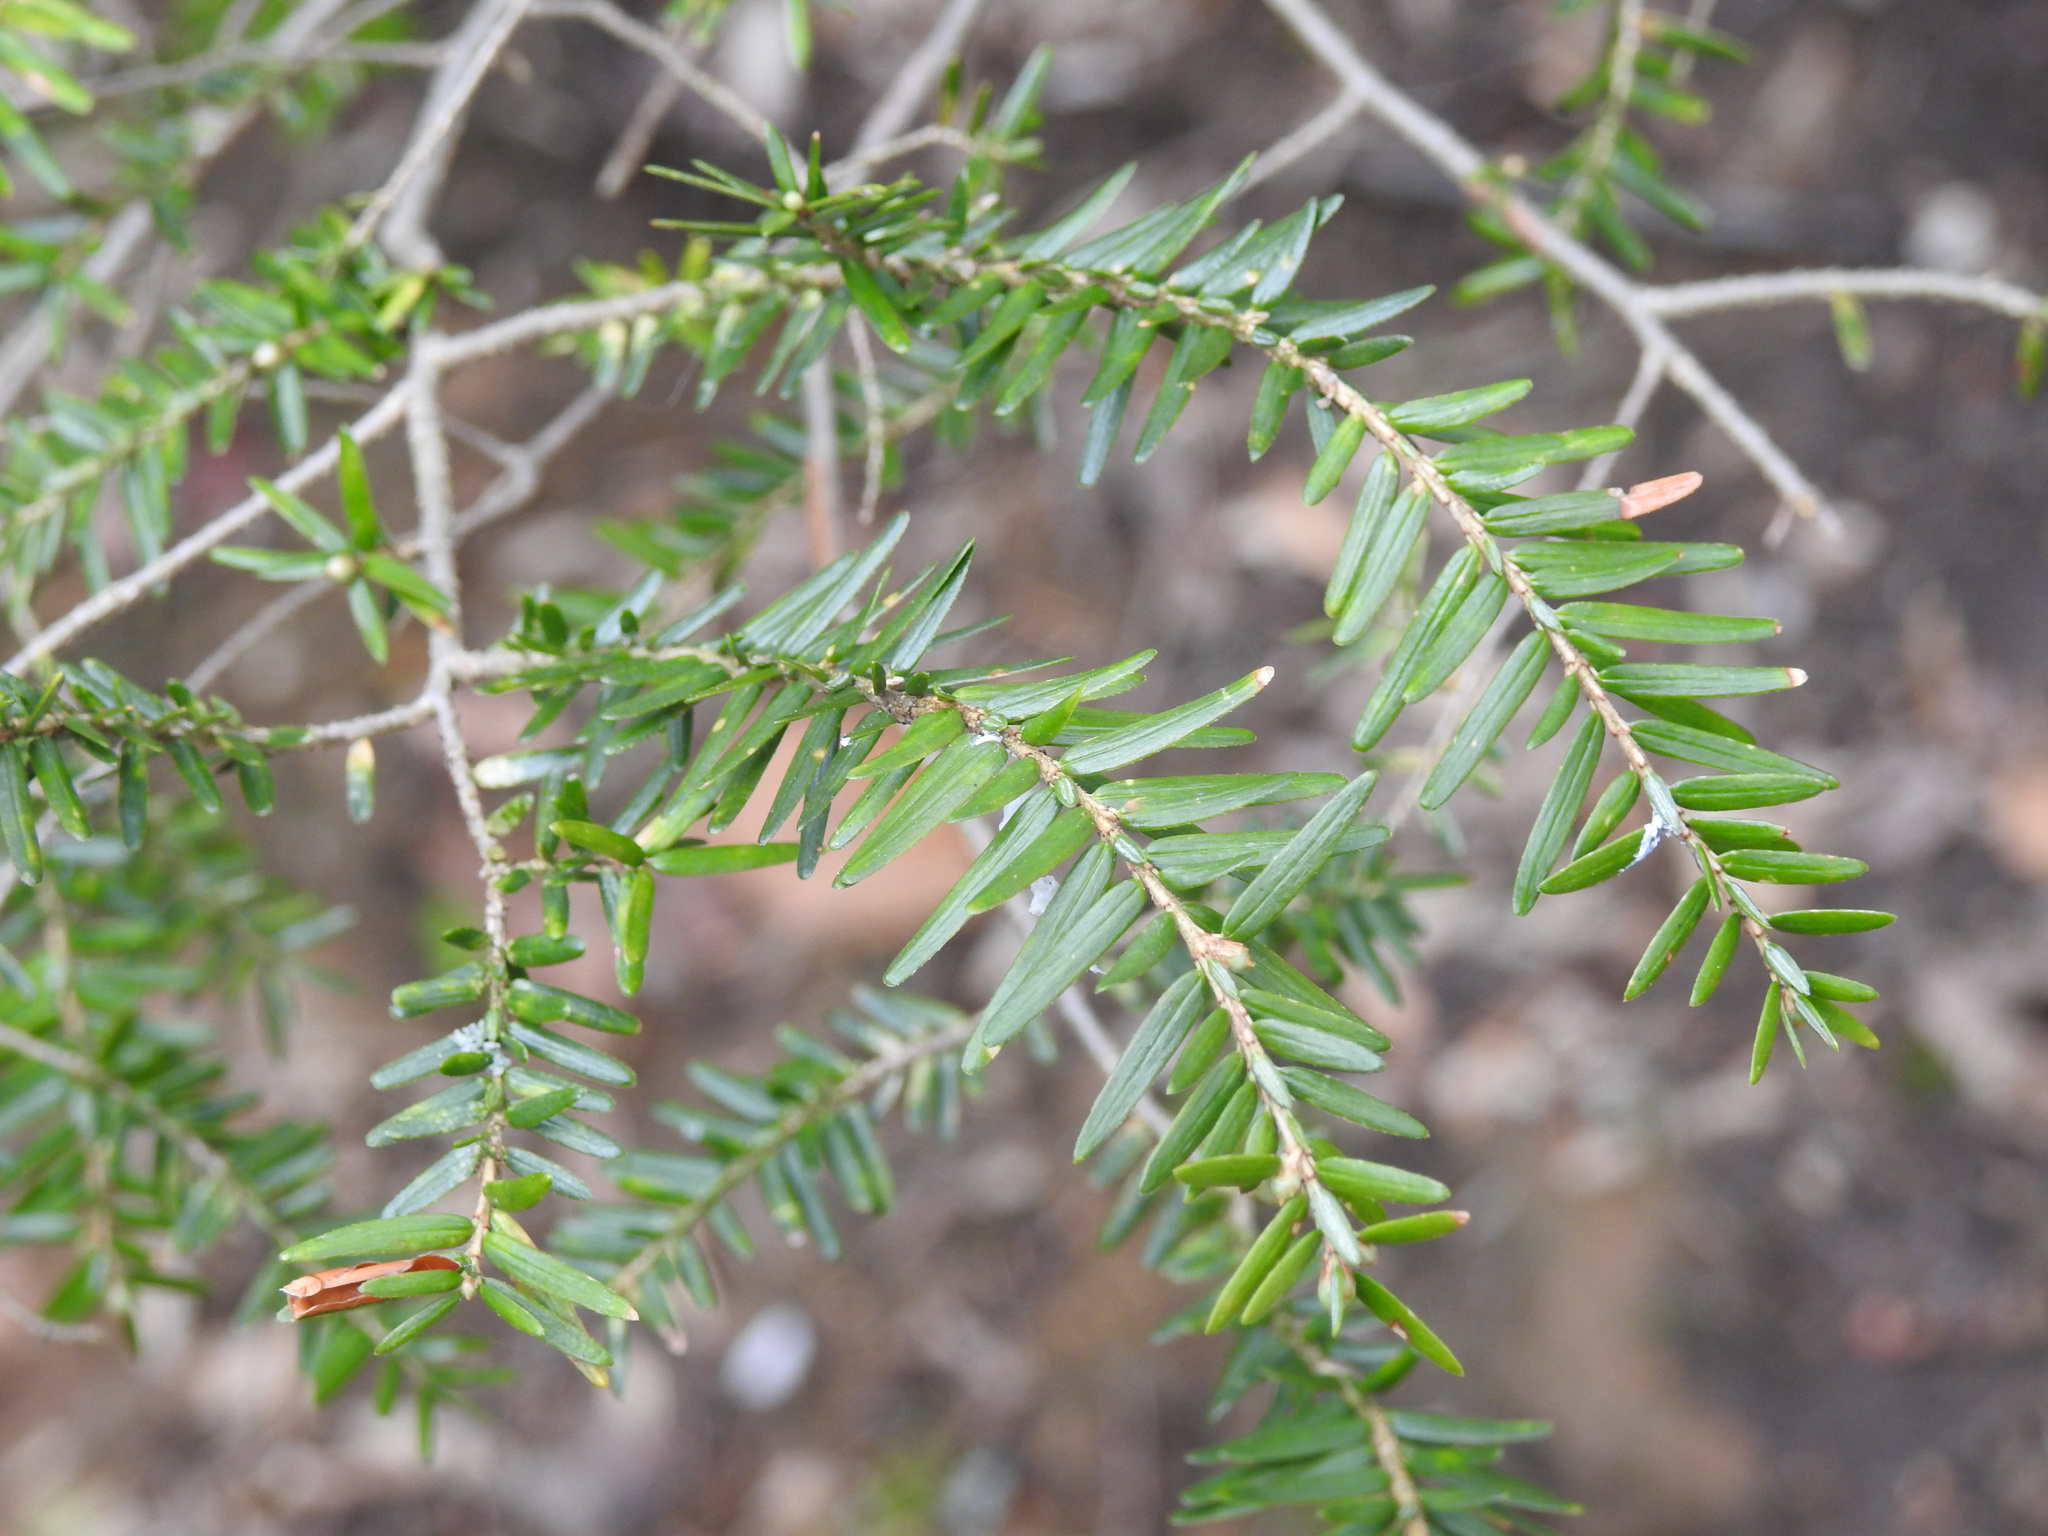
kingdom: Plantae
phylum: Tracheophyta
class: Pinopsida
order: Pinales
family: Pinaceae
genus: Tsuga
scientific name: Tsuga canadensis
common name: Eastern hemlock
